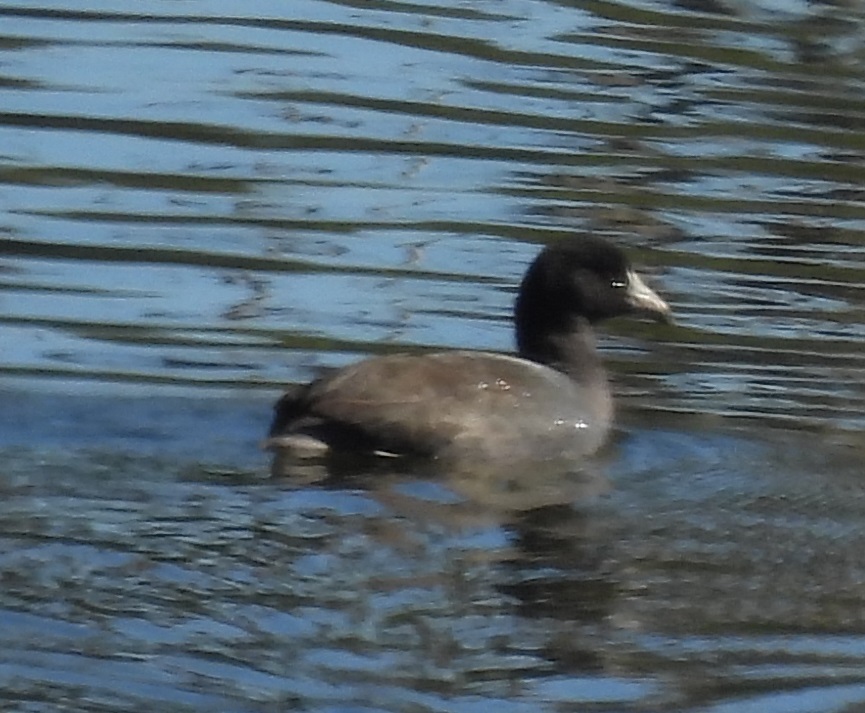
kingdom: Animalia
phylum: Chordata
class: Aves
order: Gruiformes
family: Rallidae
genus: Fulica
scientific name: Fulica americana
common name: American coot
